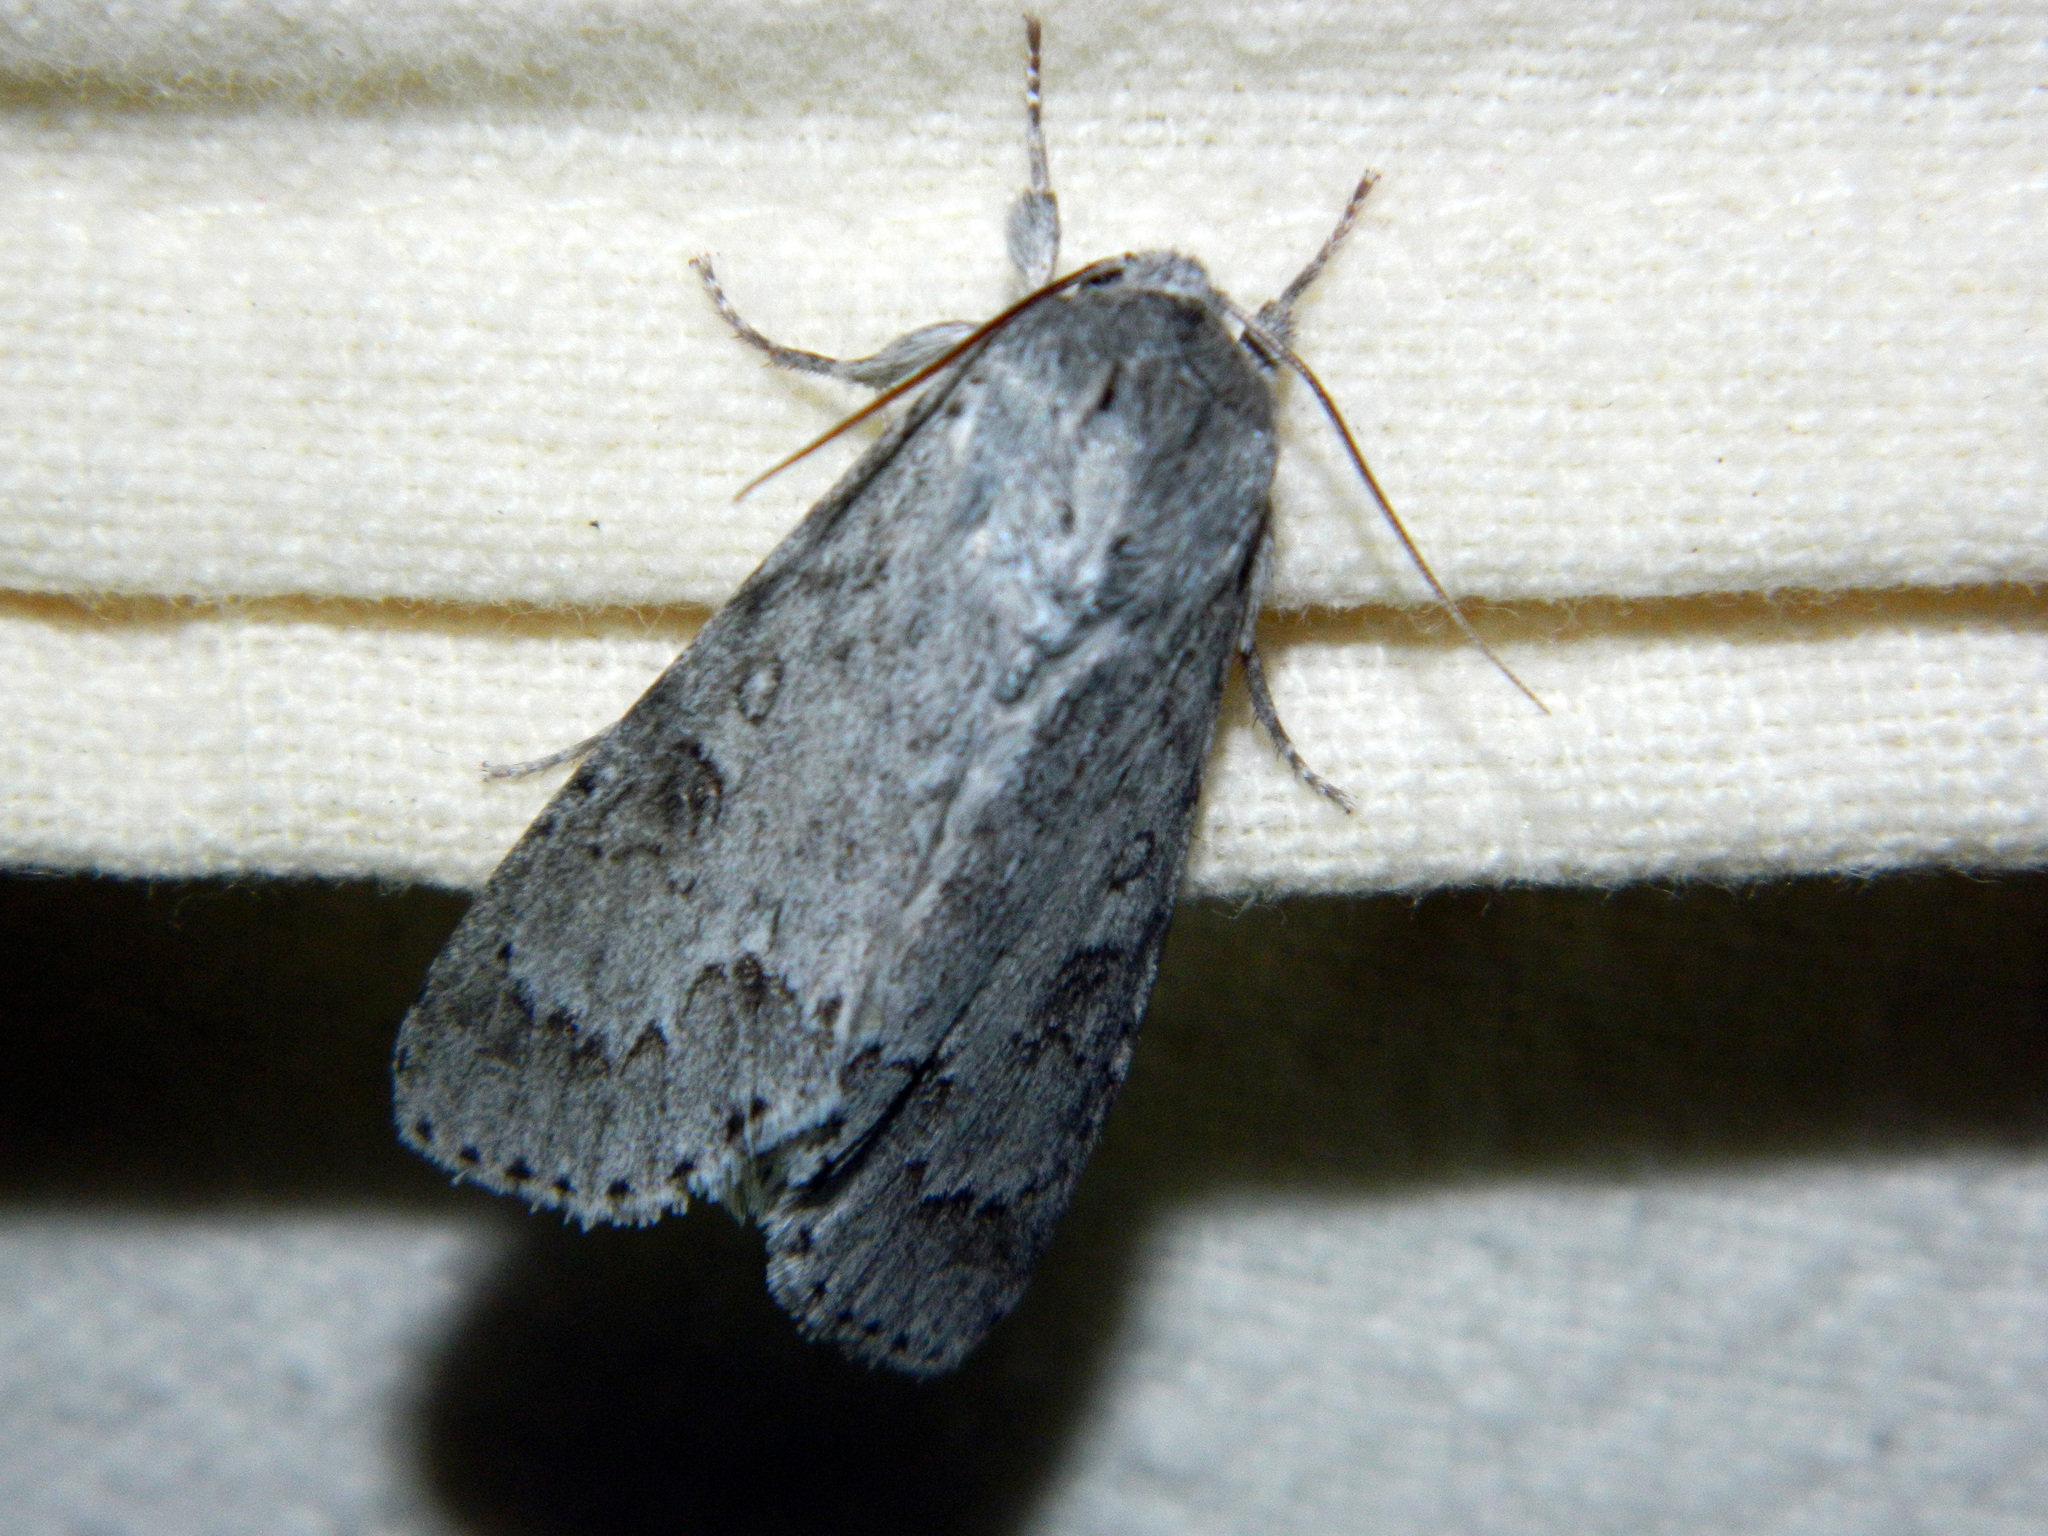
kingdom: Animalia
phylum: Arthropoda
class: Insecta
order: Lepidoptera
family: Noctuidae
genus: Acronicta
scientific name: Acronicta insita
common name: Large gray dagger
